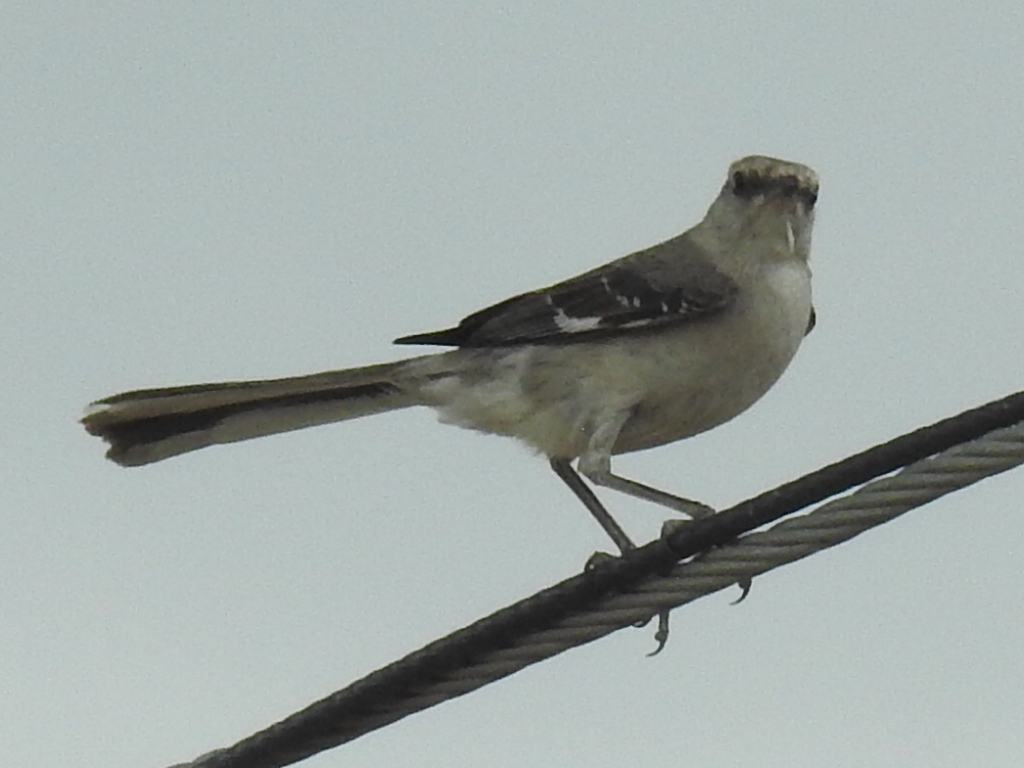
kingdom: Animalia
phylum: Chordata
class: Aves
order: Passeriformes
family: Mimidae
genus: Mimus
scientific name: Mimus polyglottos
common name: Northern mockingbird
